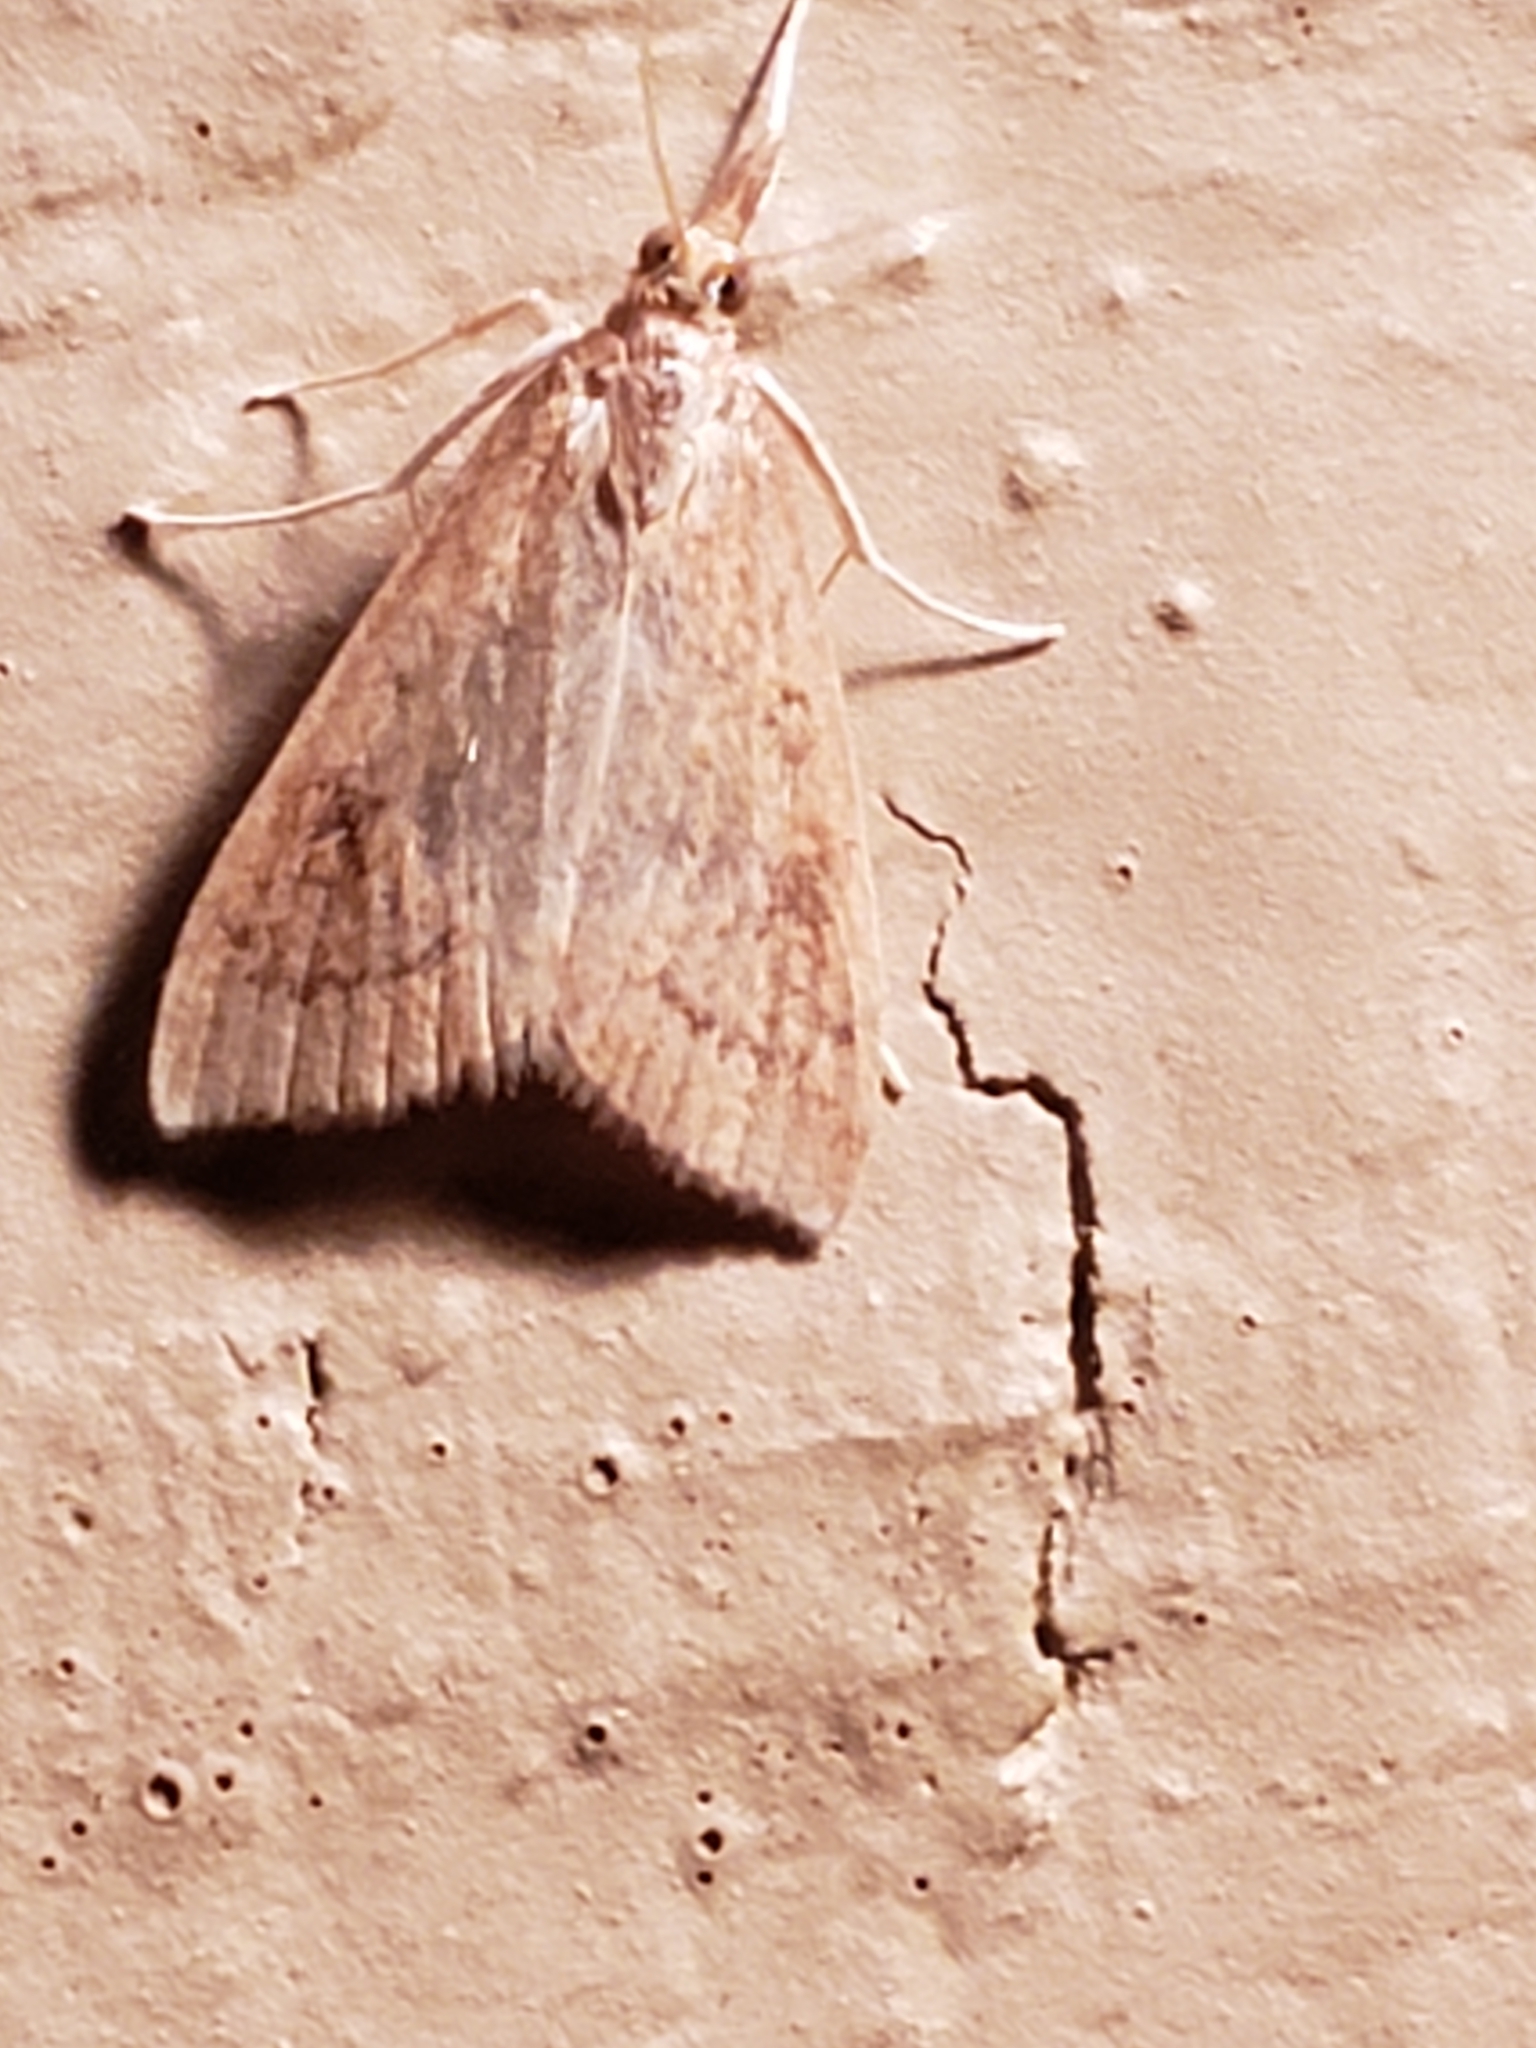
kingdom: Animalia
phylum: Arthropoda
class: Insecta
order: Lepidoptera
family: Crambidae
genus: Udea
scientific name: Udea rubigalis
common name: Celery leaftier moth
